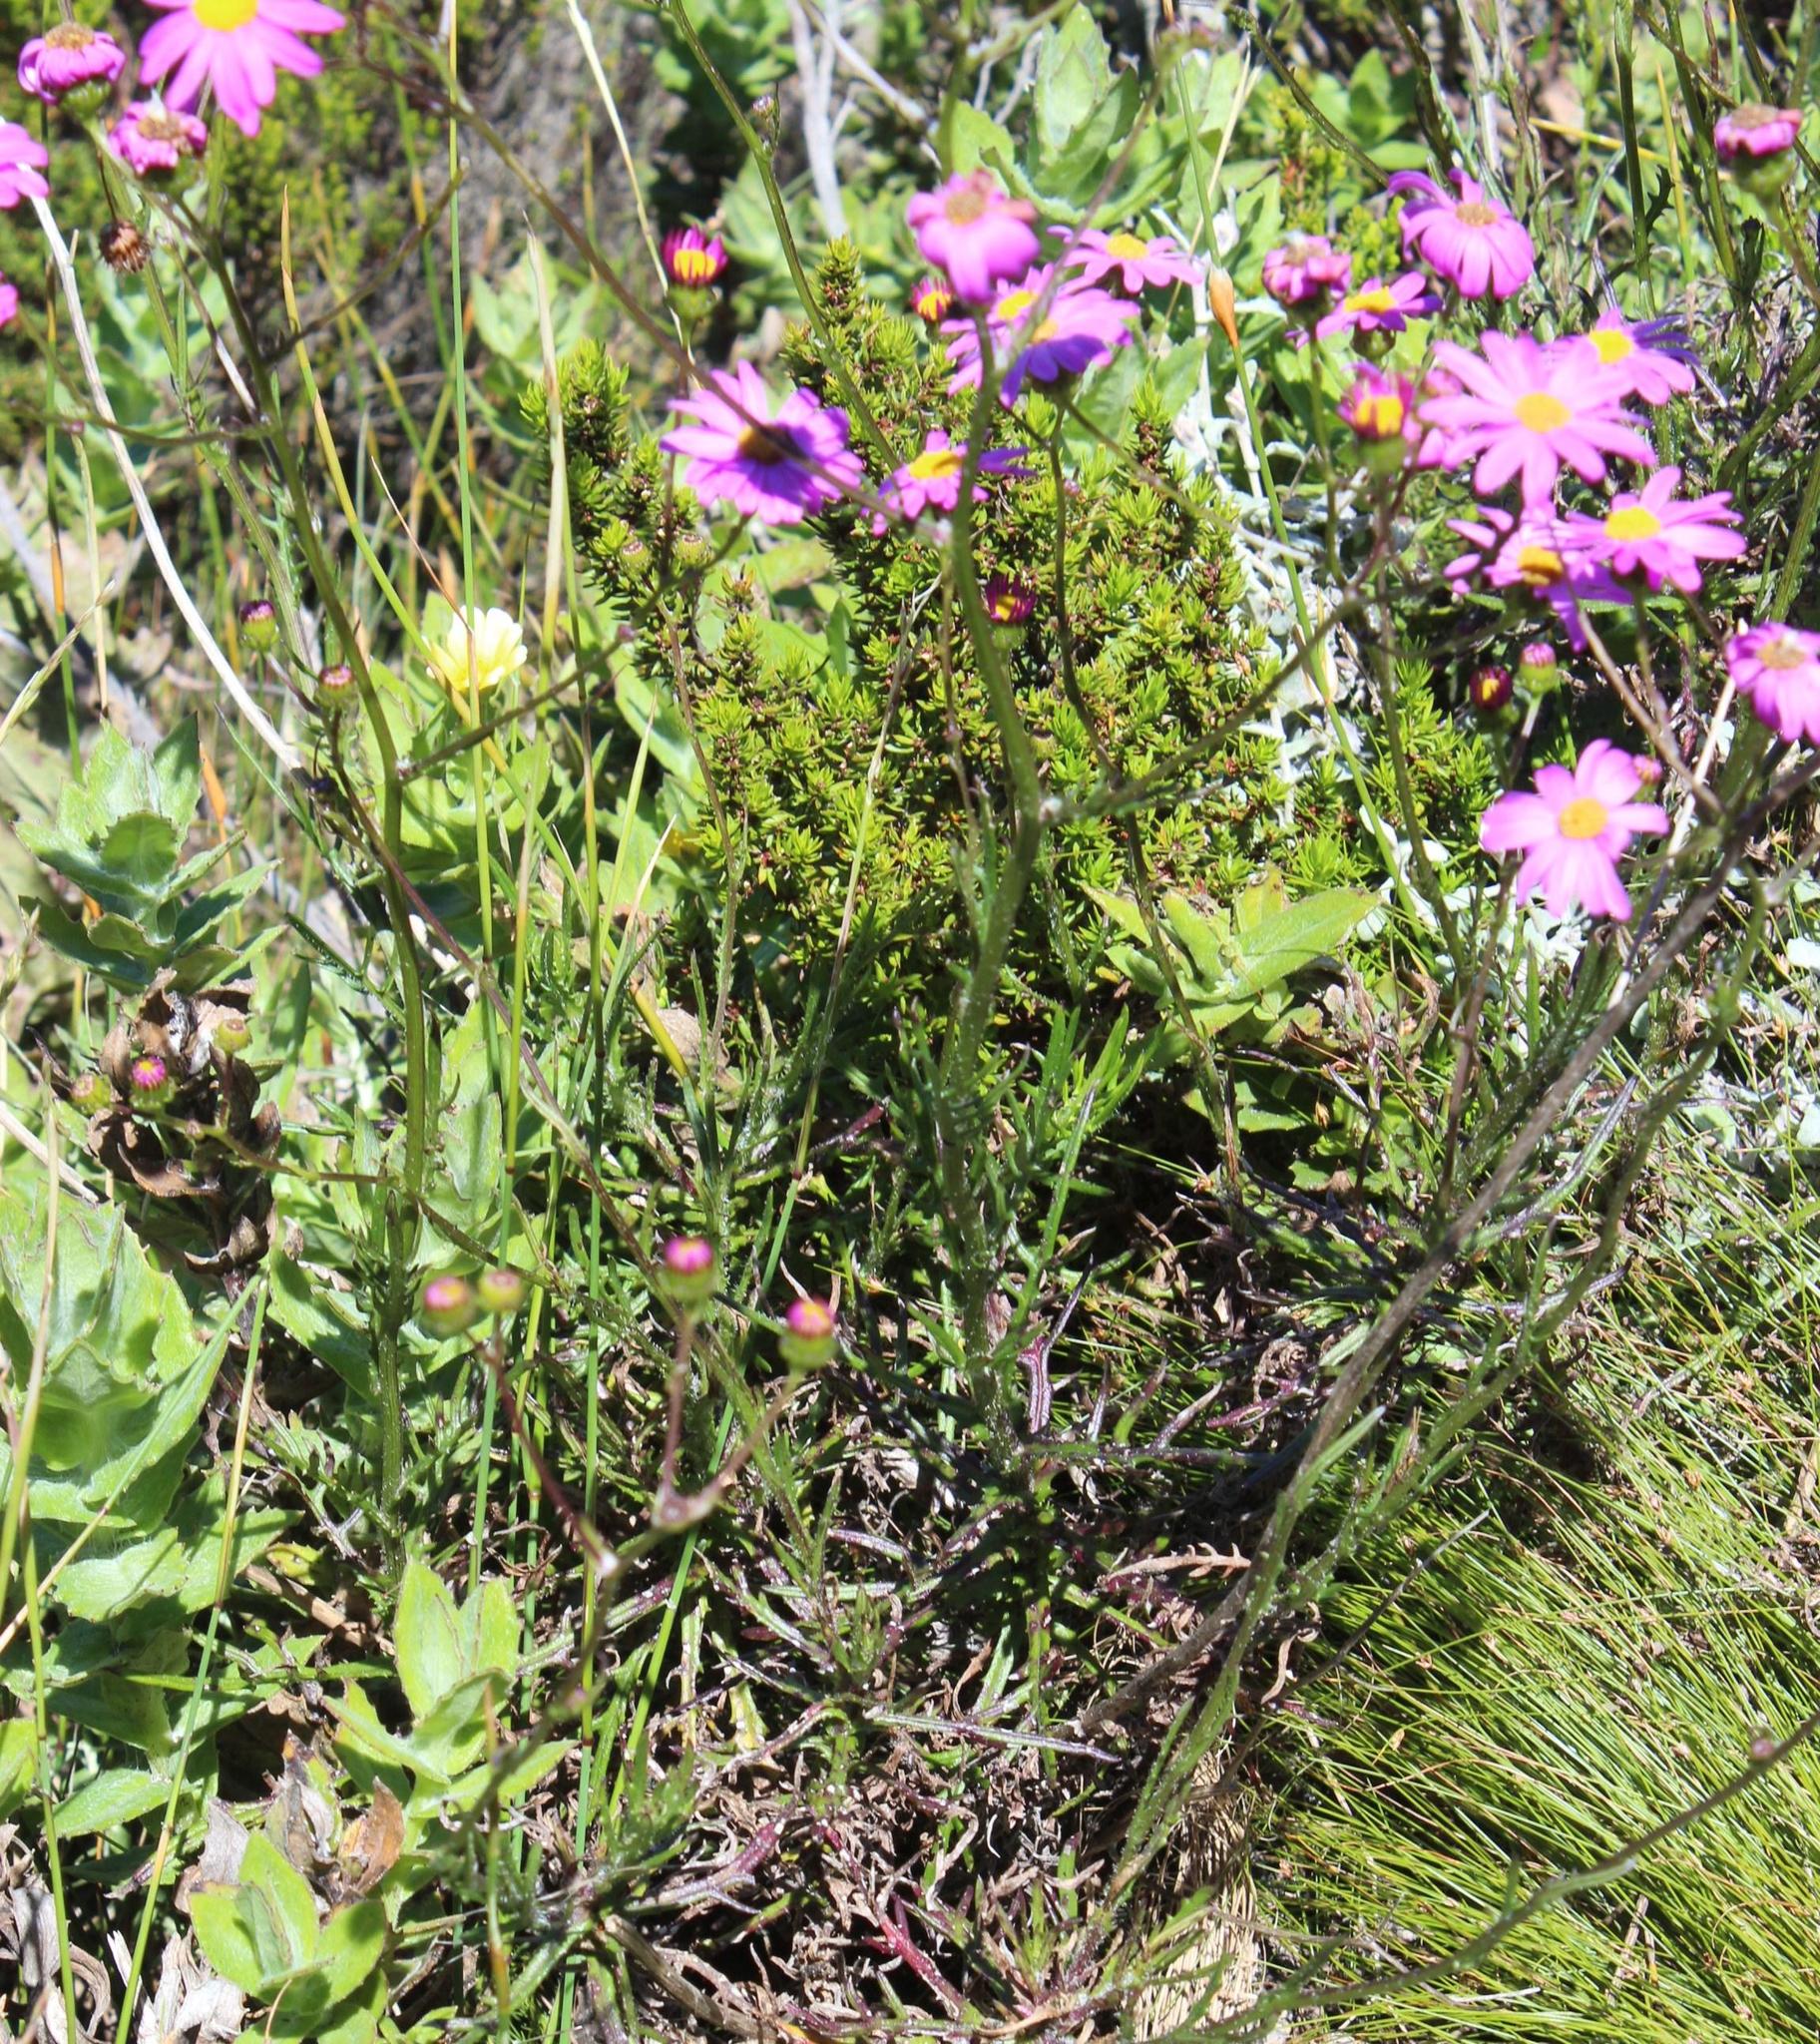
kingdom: Plantae
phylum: Tracheophyta
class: Magnoliopsida
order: Asterales
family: Asteraceae
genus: Senecio
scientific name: Senecio umbellatus
